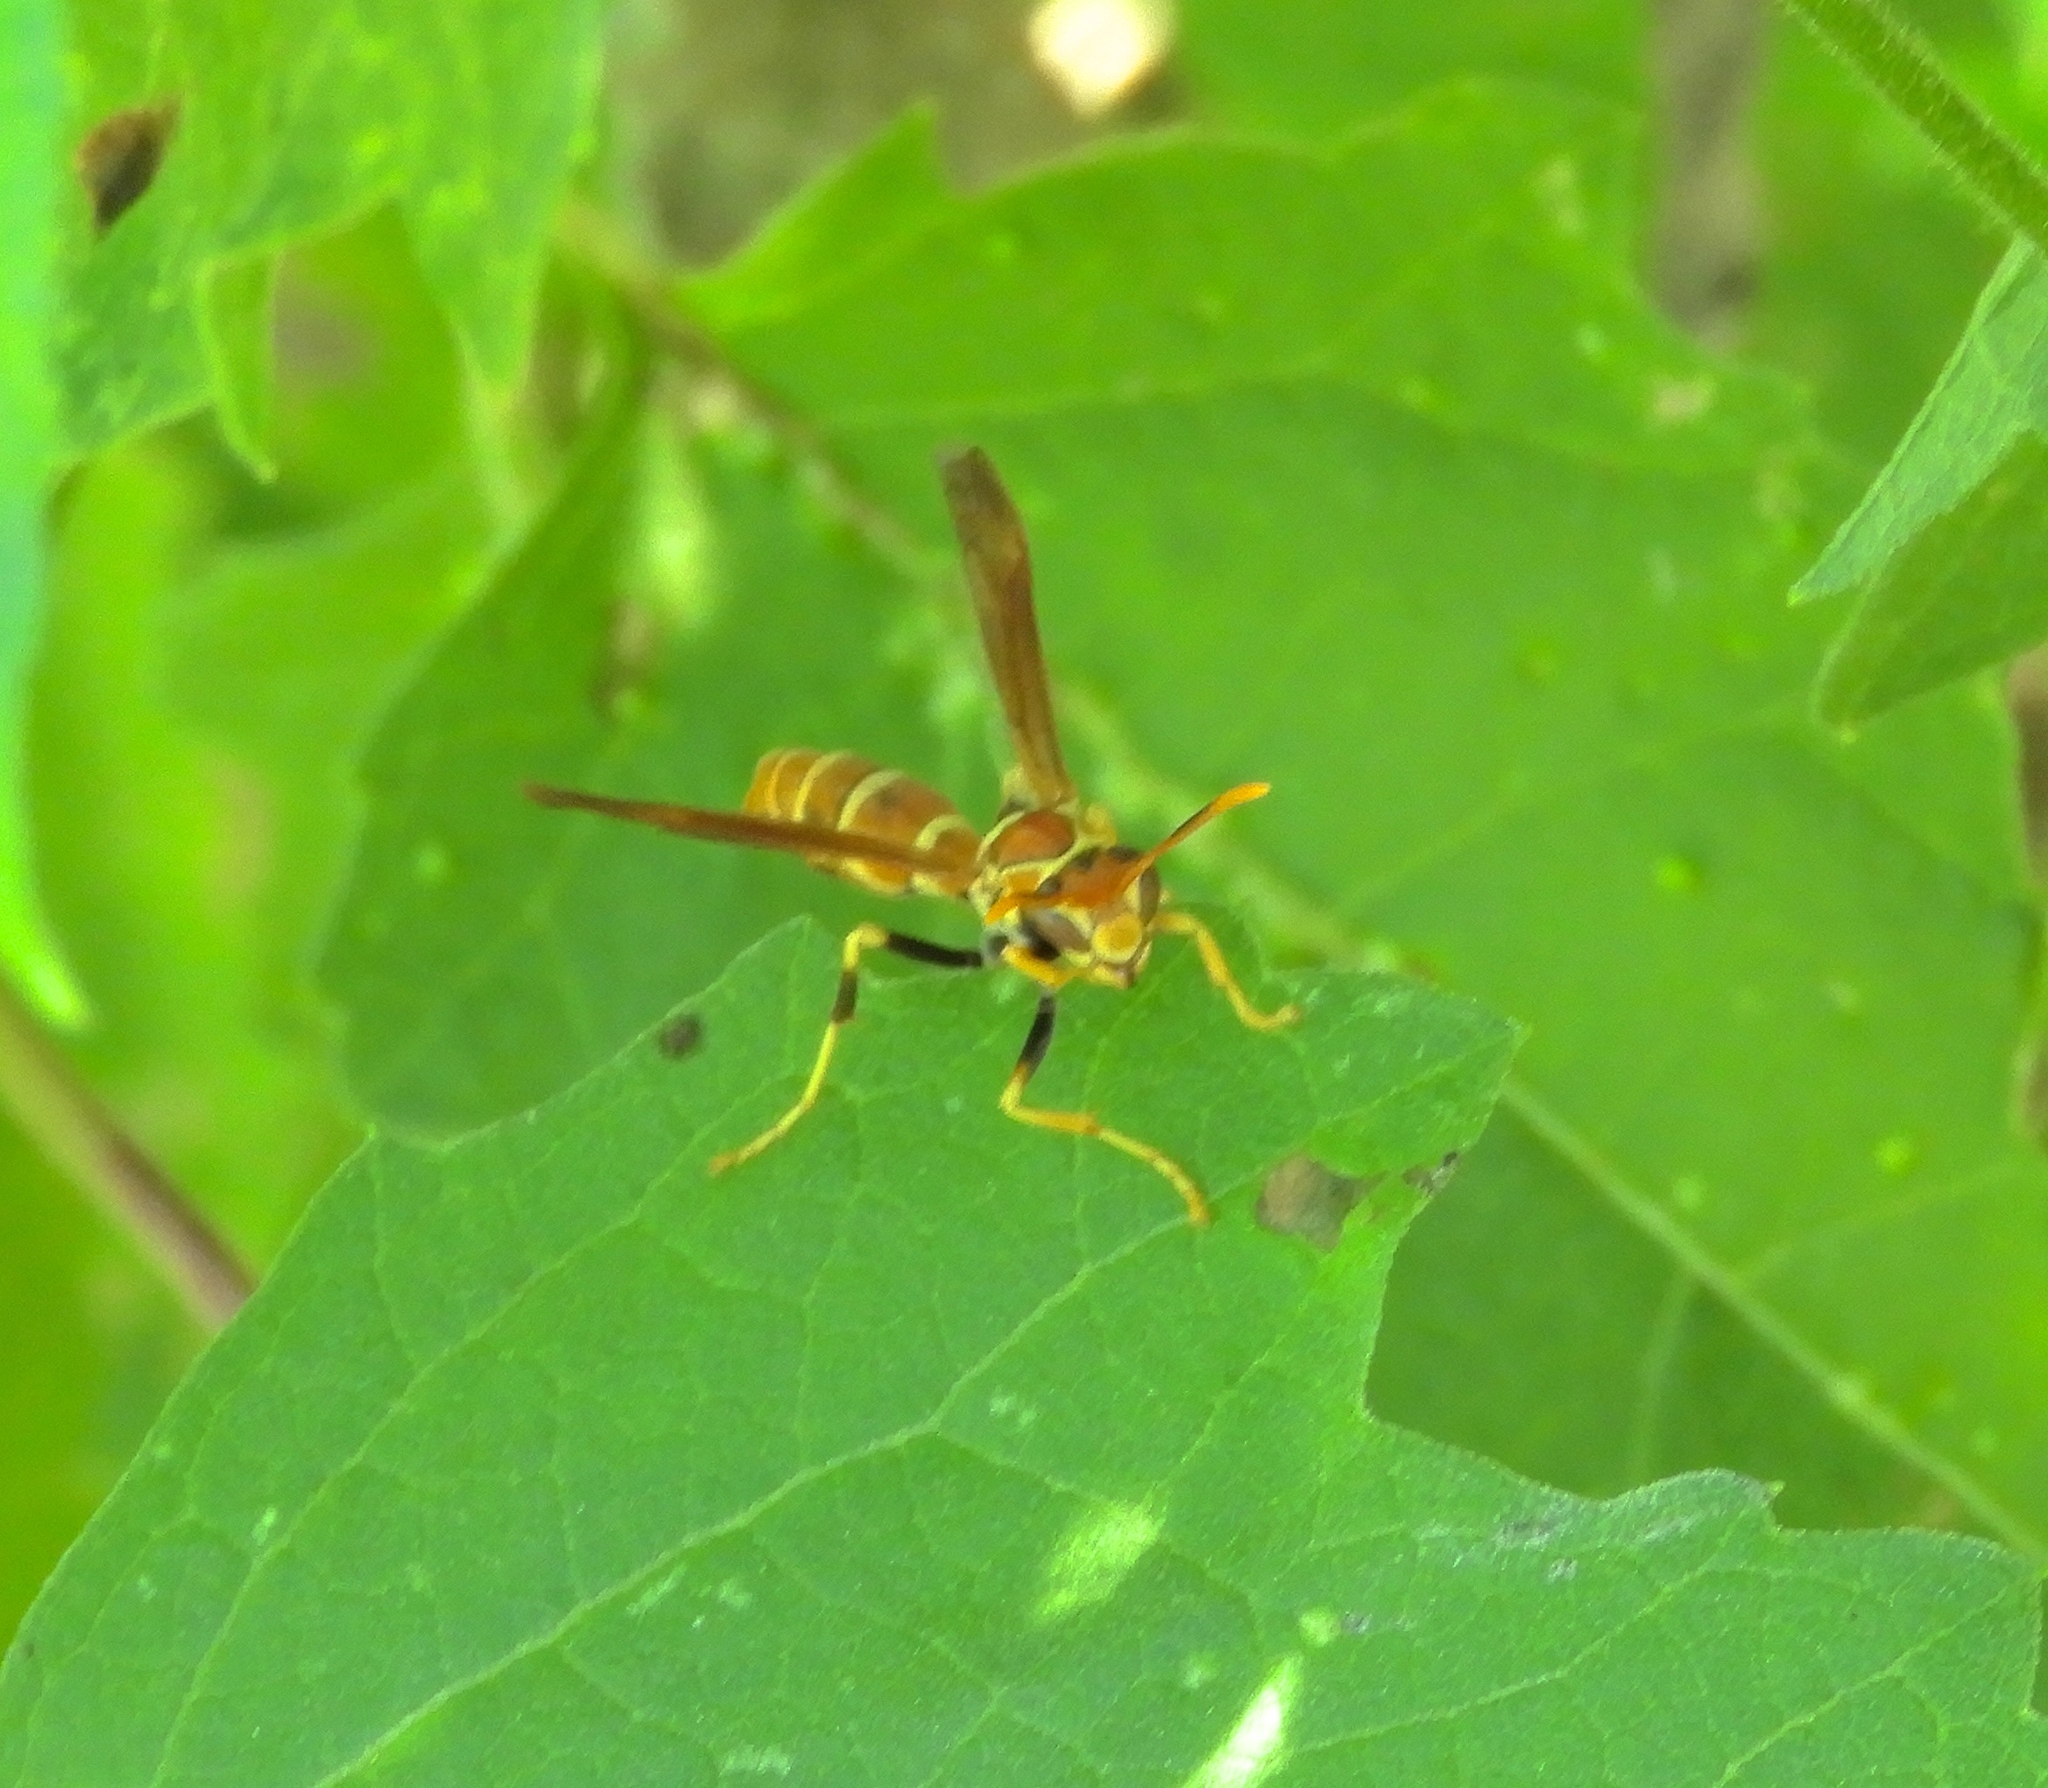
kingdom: Animalia
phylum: Arthropoda
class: Insecta
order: Hymenoptera
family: Eumenidae
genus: Polistes
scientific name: Polistes instabilis
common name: Unstable paper wasp
